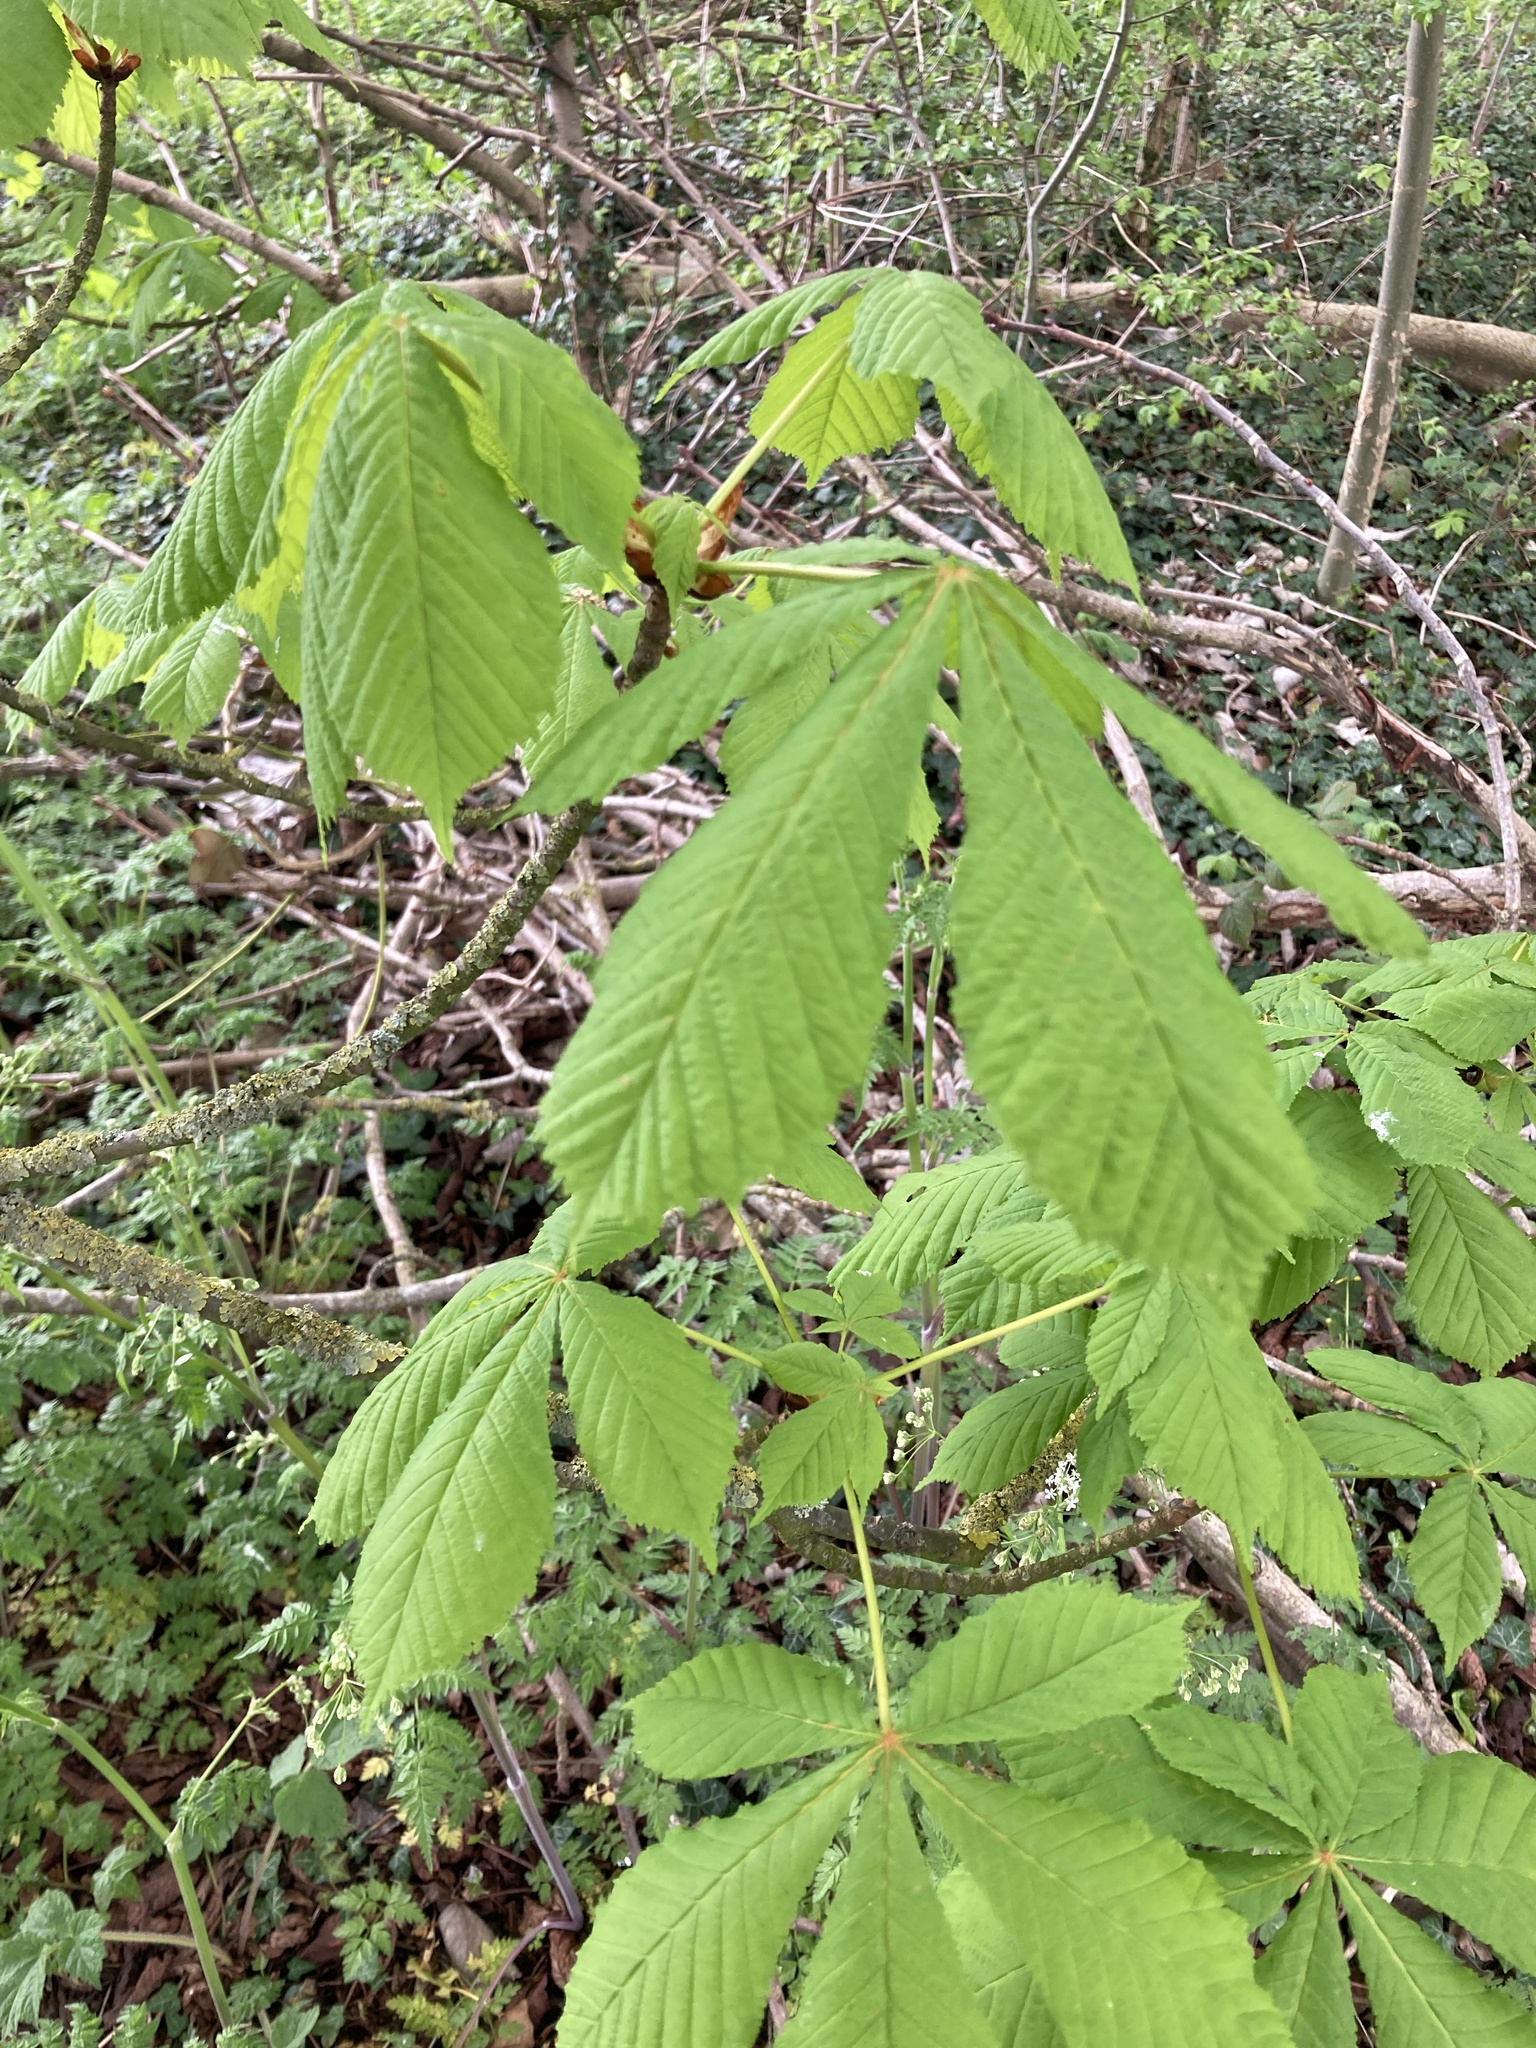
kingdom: Plantae
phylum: Tracheophyta
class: Magnoliopsida
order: Sapindales
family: Sapindaceae
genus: Aesculus
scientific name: Aesculus hippocastanum
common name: Horse-chestnut
